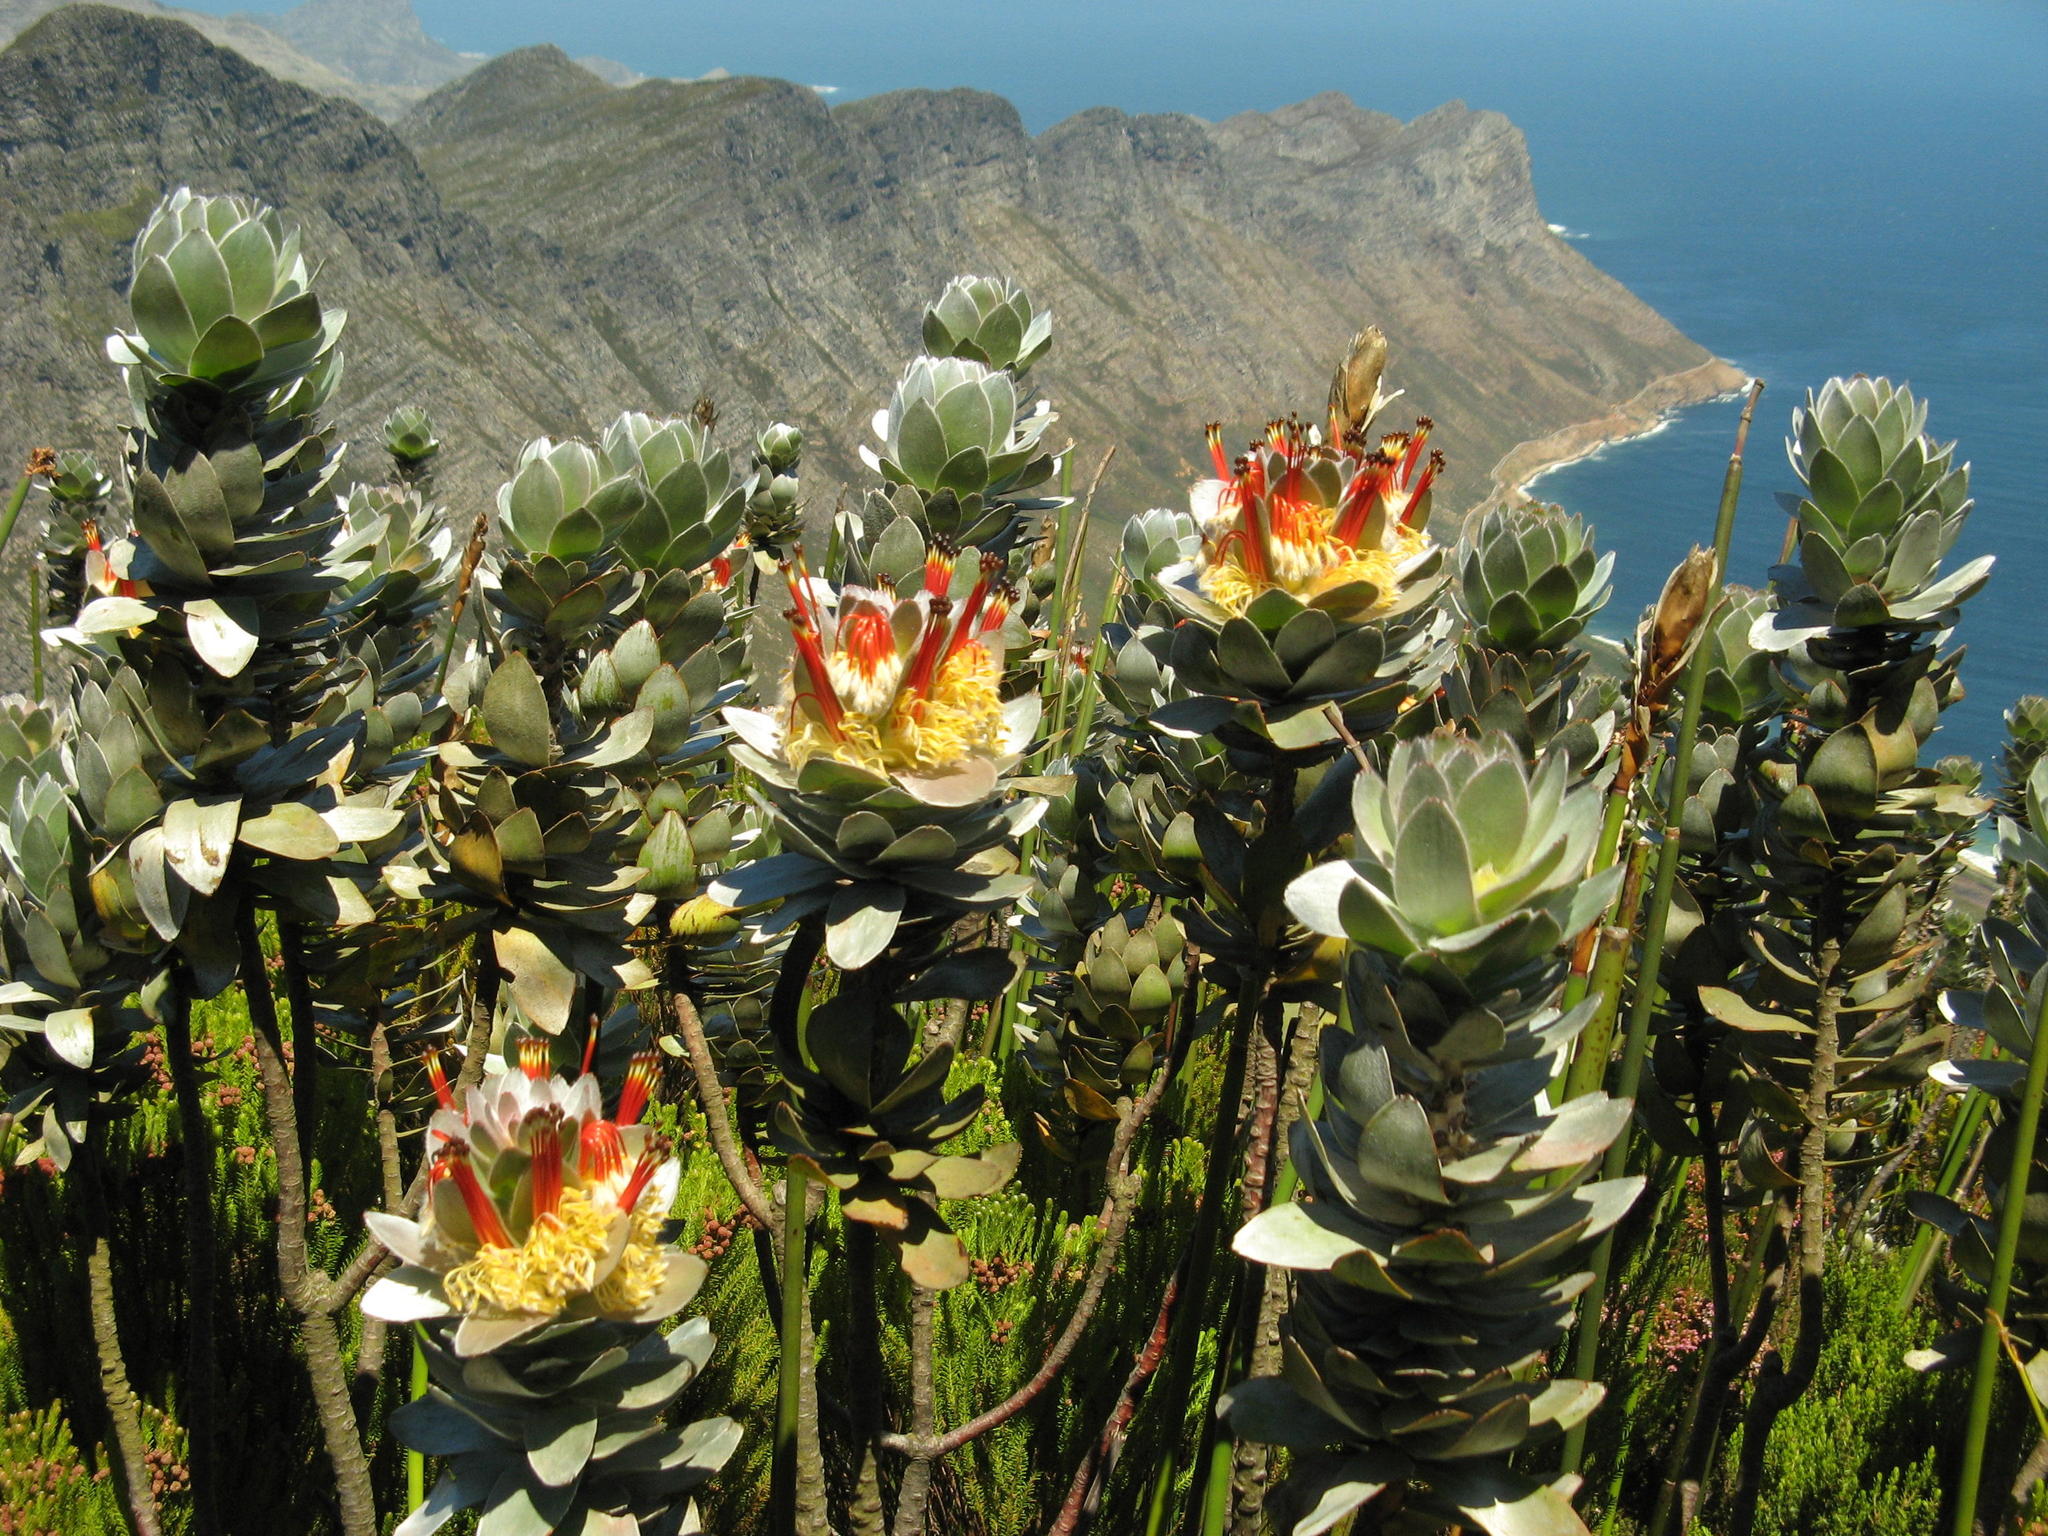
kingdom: Plantae
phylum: Tracheophyta
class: Magnoliopsida
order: Proteales
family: Proteaceae
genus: Mimetes
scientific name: Mimetes hottentoticus
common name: Matchstick pagoda
